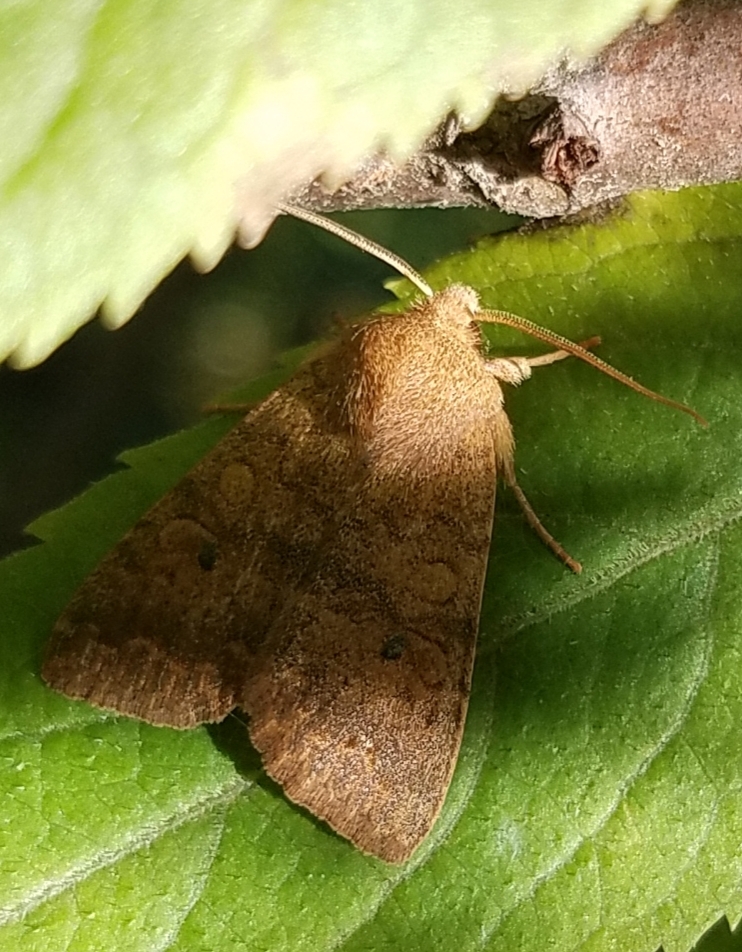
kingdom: Animalia
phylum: Arthropoda
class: Insecta
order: Lepidoptera
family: Noctuidae
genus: Agrochola
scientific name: Agrochola bicolorago
